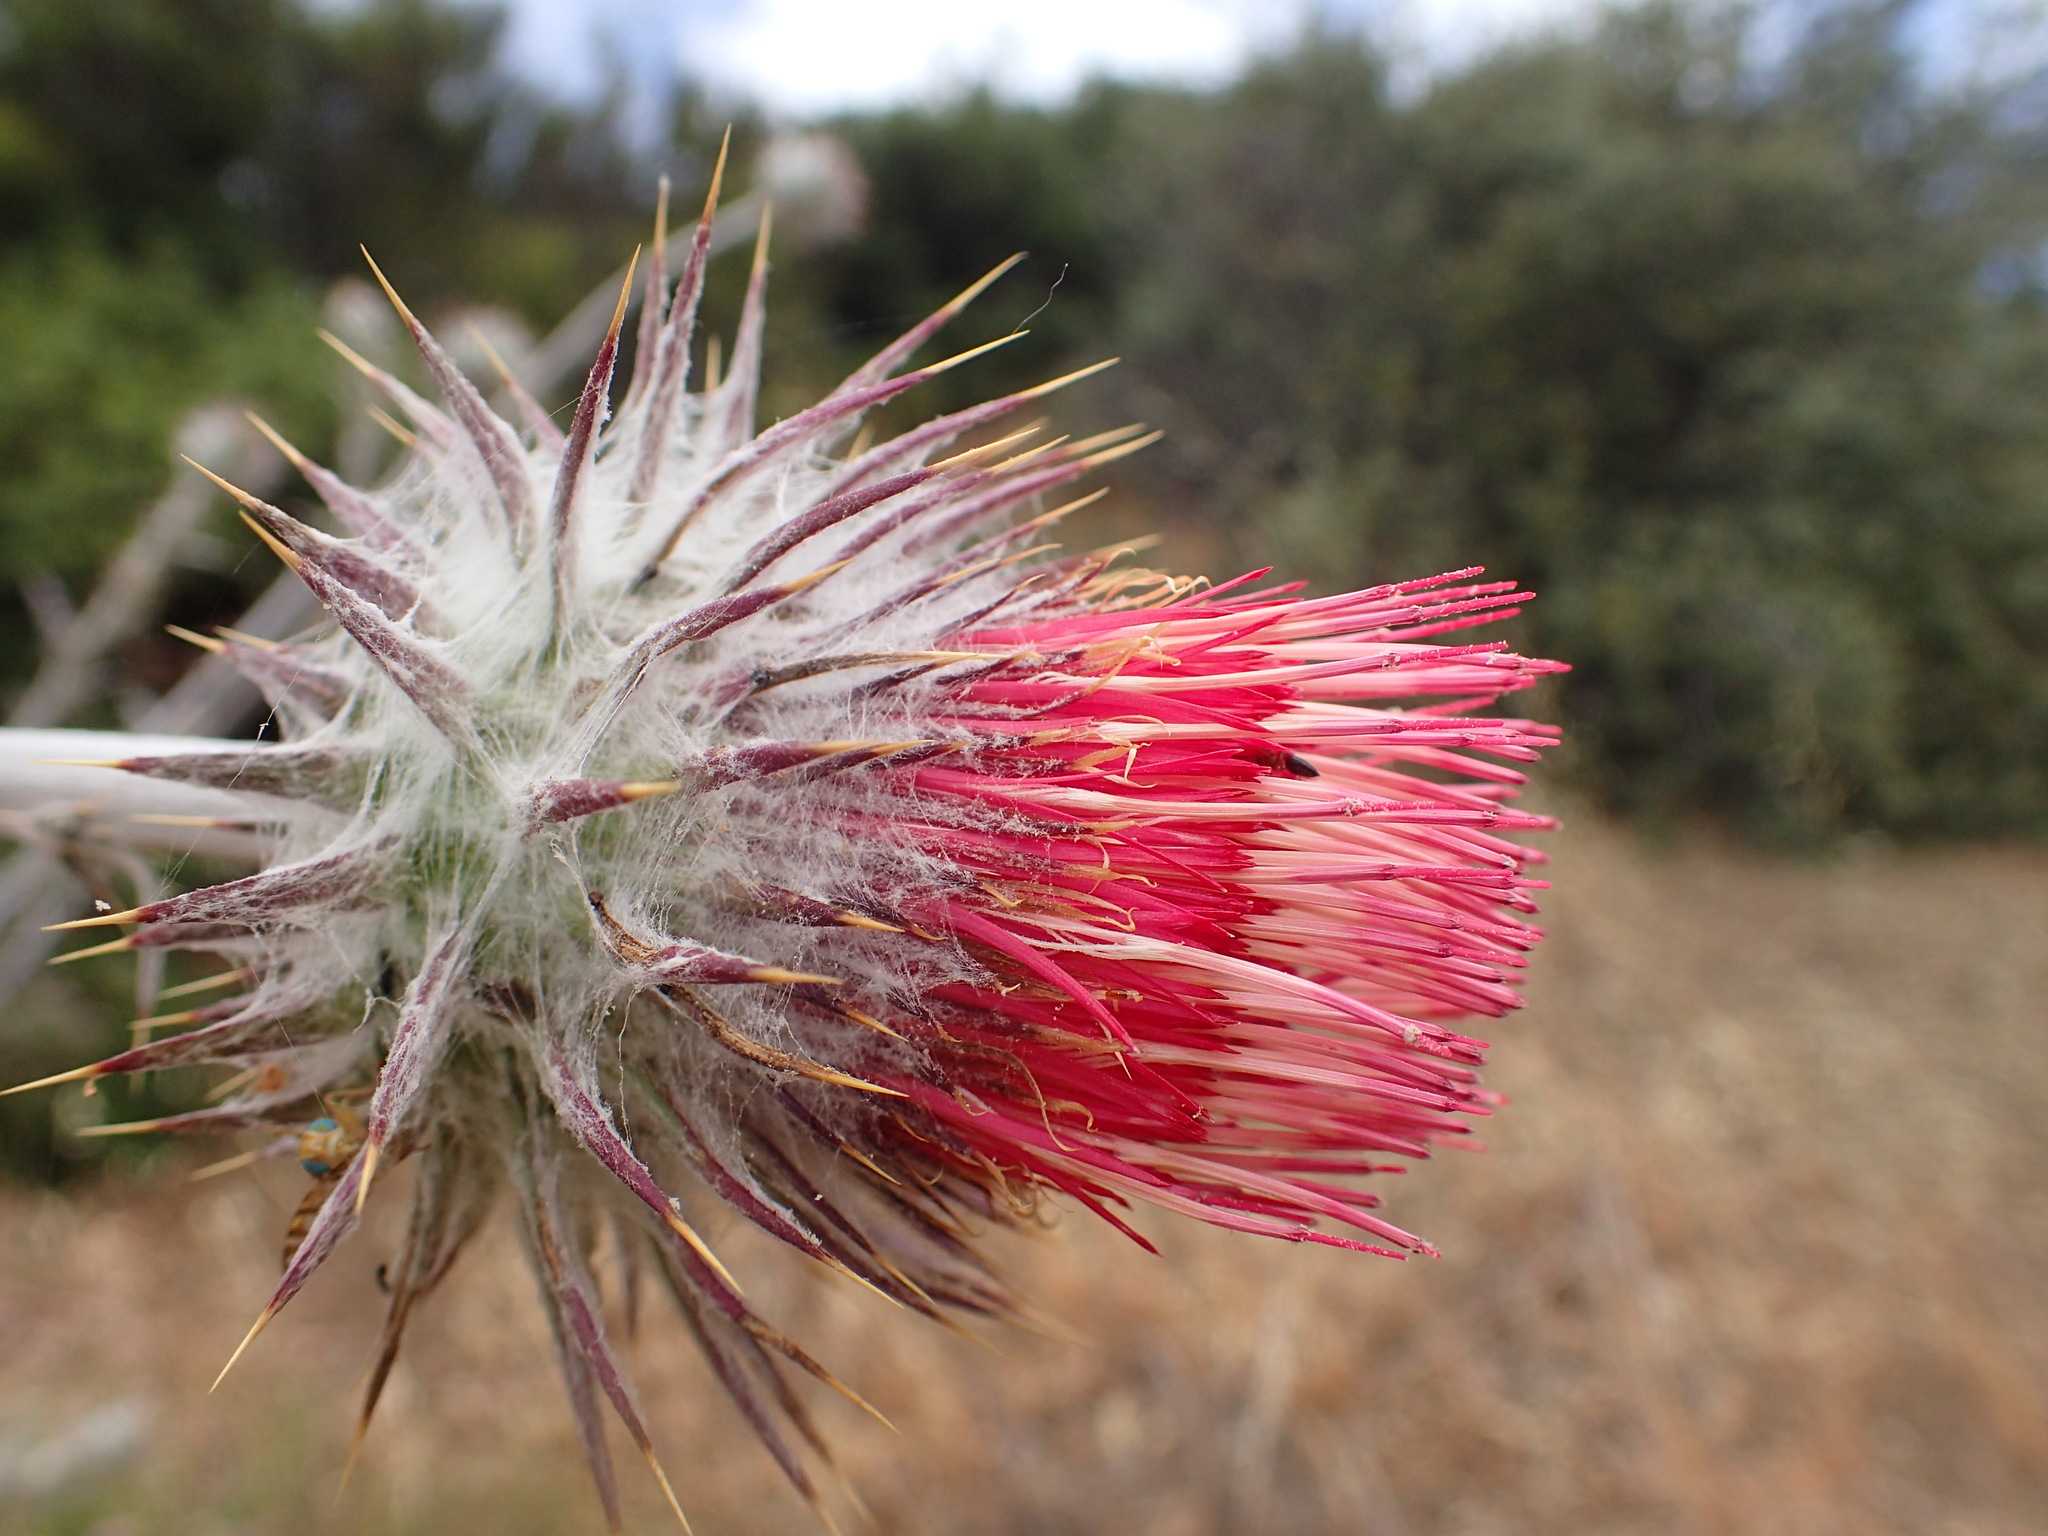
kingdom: Plantae
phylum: Tracheophyta
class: Magnoliopsida
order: Asterales
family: Asteraceae
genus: Cirsium
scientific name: Cirsium occidentale
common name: Western thistle
